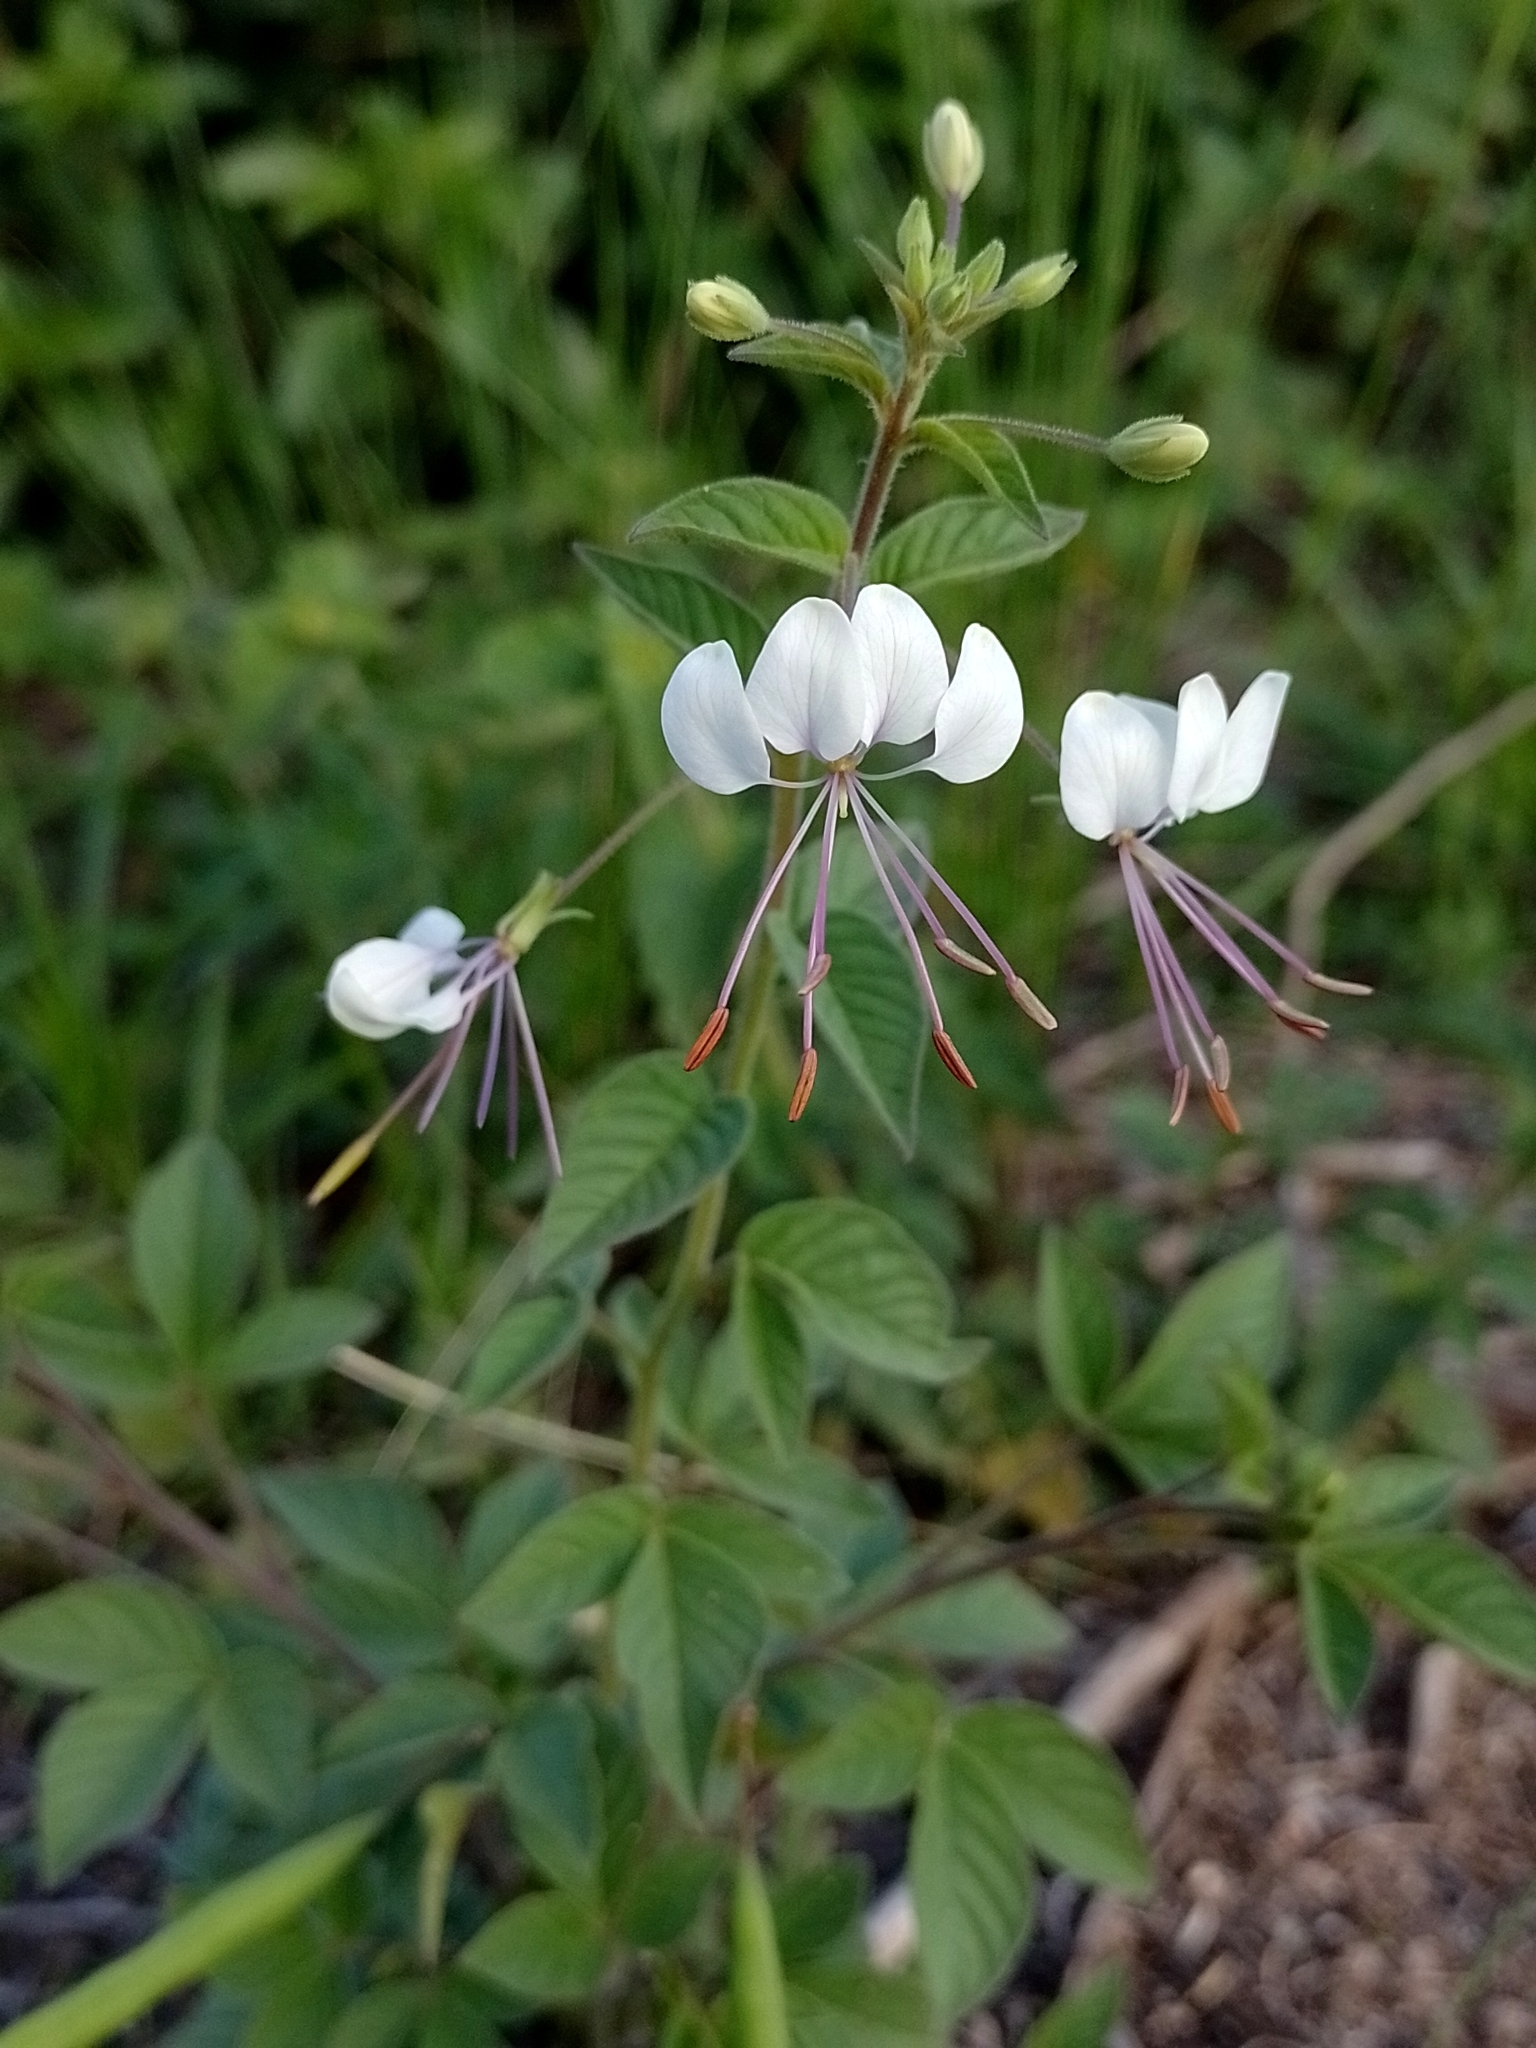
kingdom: Plantae
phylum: Tracheophyta
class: Magnoliopsida
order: Brassicales
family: Cleomaceae
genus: Tarenaya
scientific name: Tarenaya cordobensis
